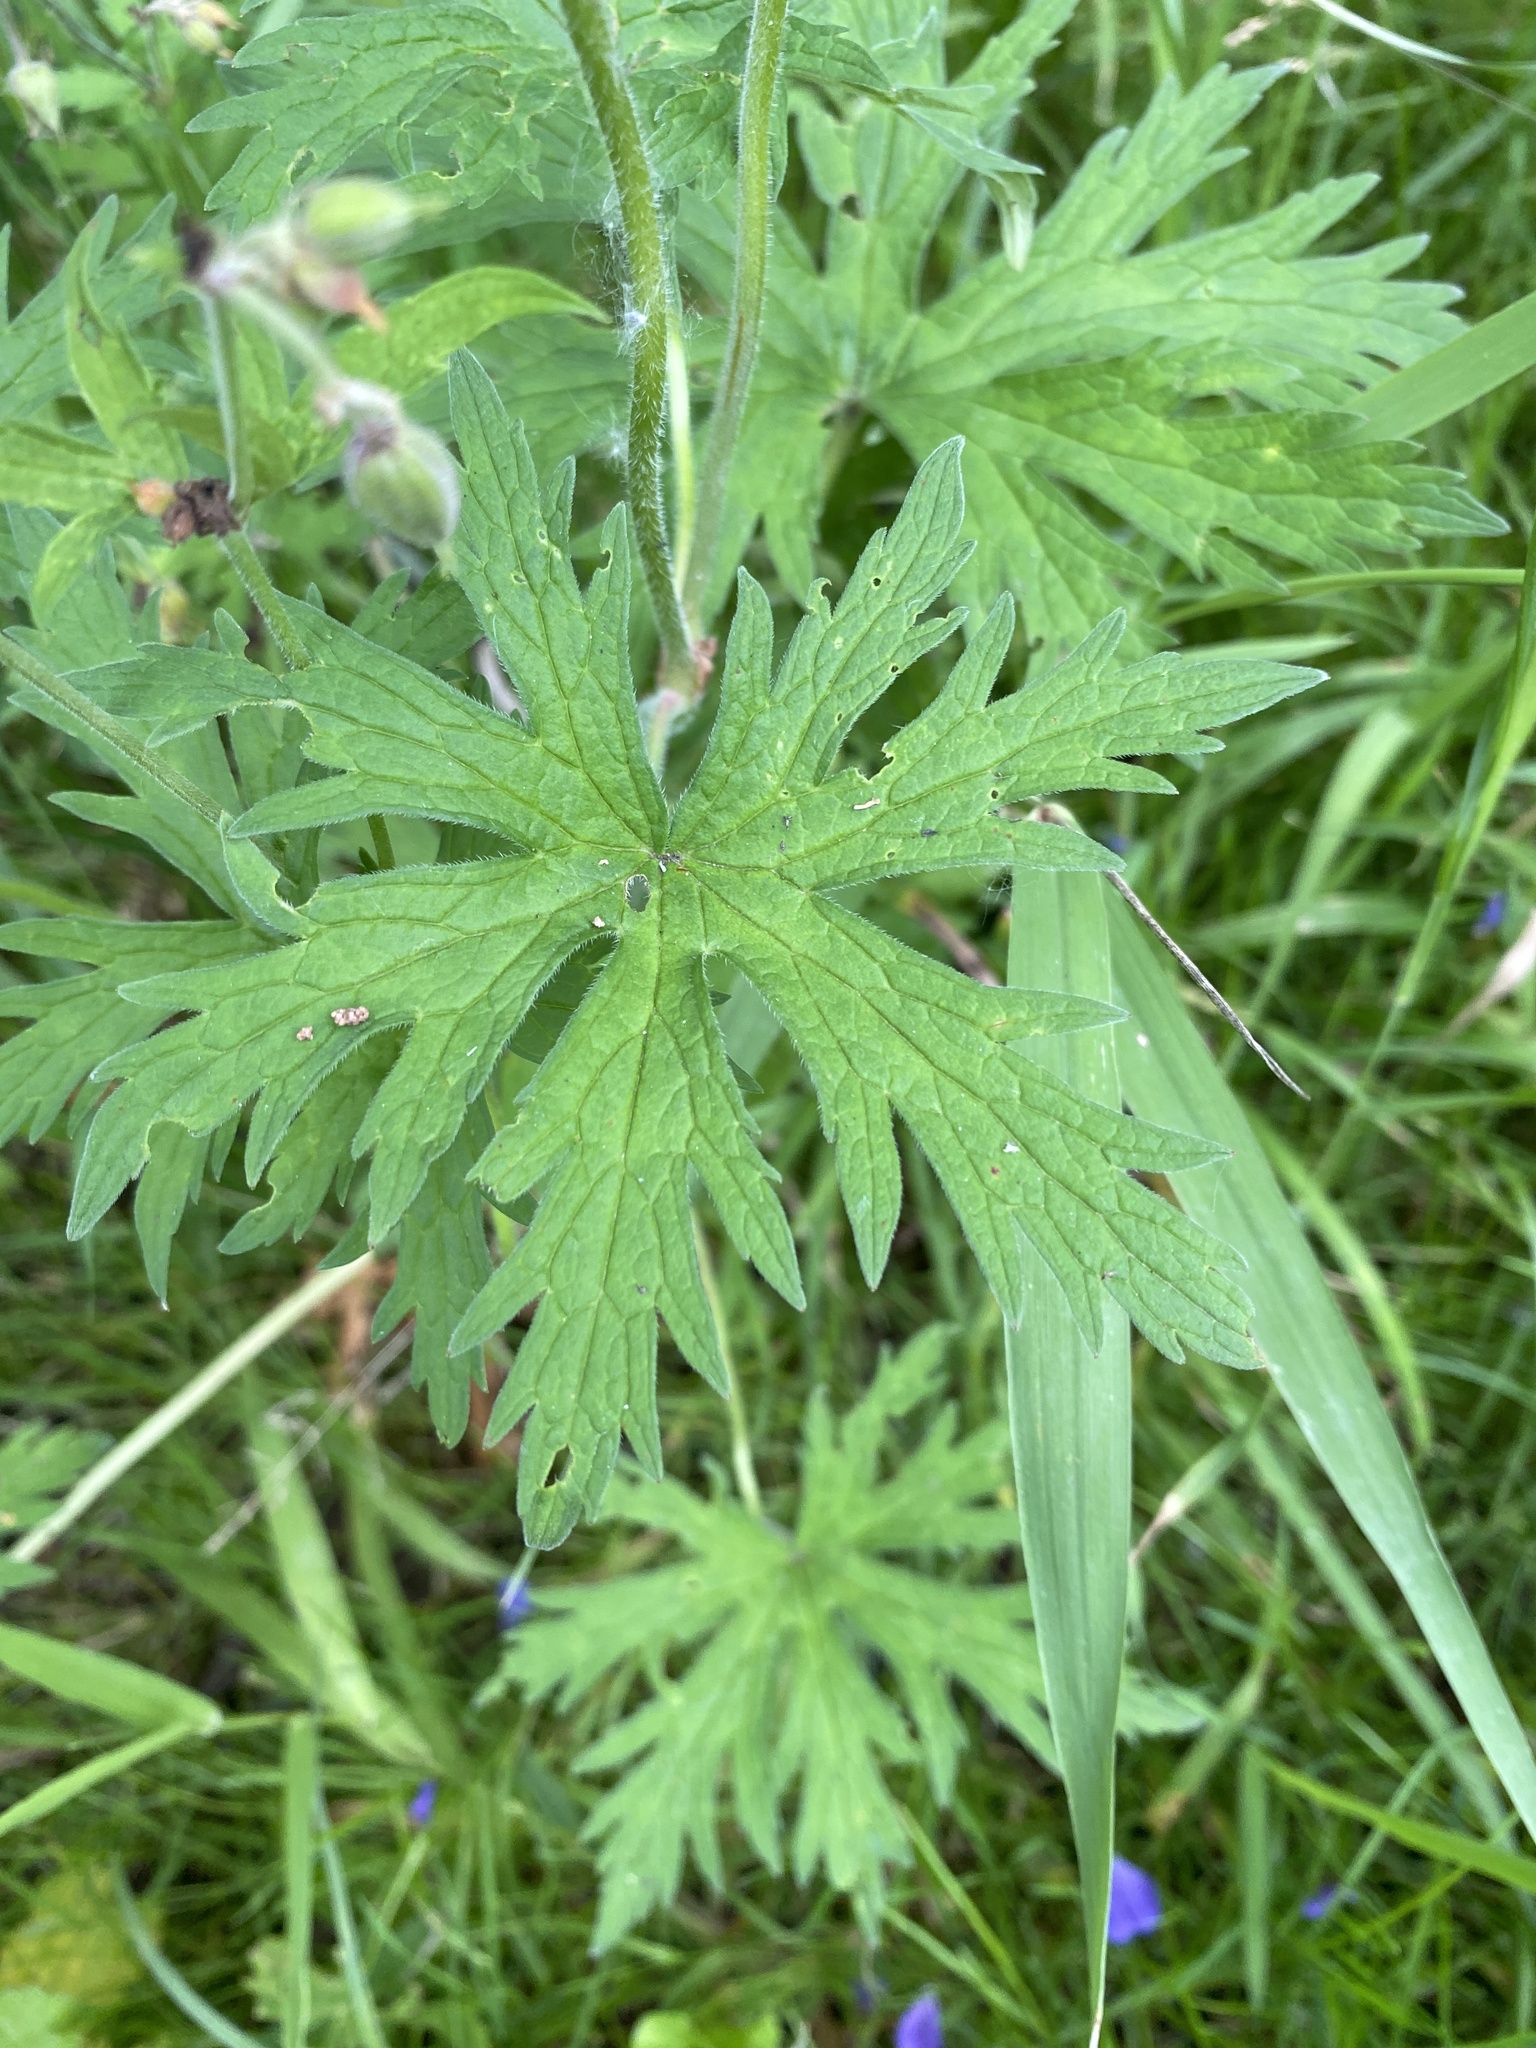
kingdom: Plantae
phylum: Tracheophyta
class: Magnoliopsida
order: Geraniales
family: Geraniaceae
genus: Geranium
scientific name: Geranium pratense
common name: Meadow crane's-bill
